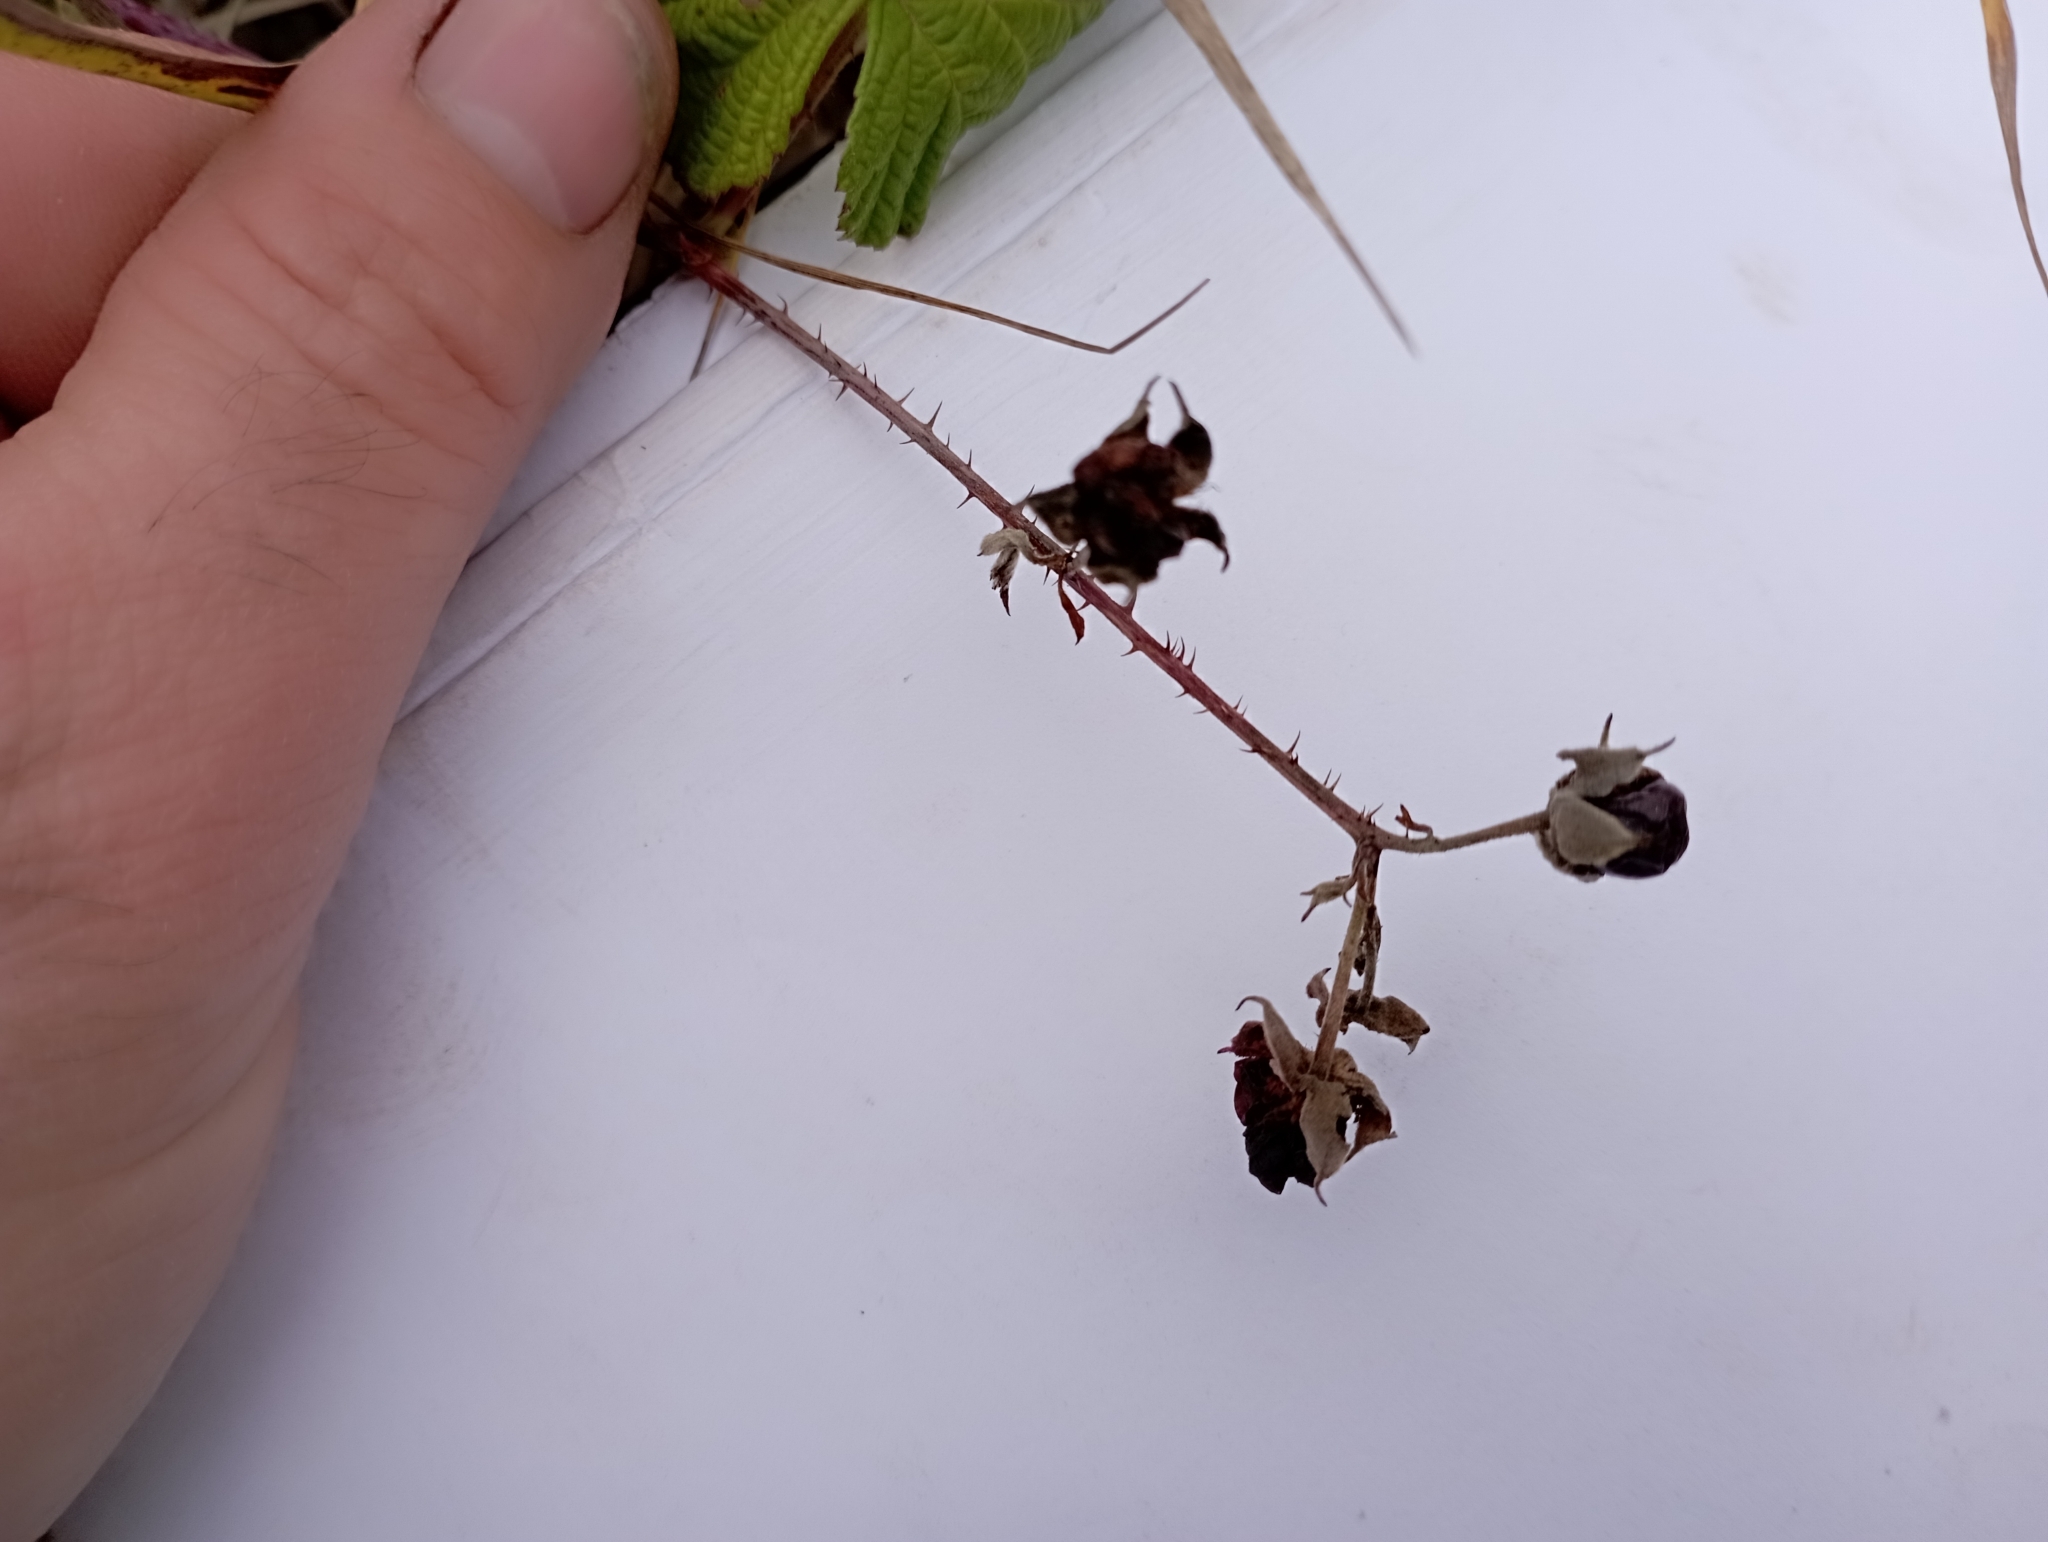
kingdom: Plantae
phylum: Tracheophyta
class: Magnoliopsida
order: Rosales
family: Rosaceae
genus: Rubus
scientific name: Rubus caesius
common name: Dewberry
